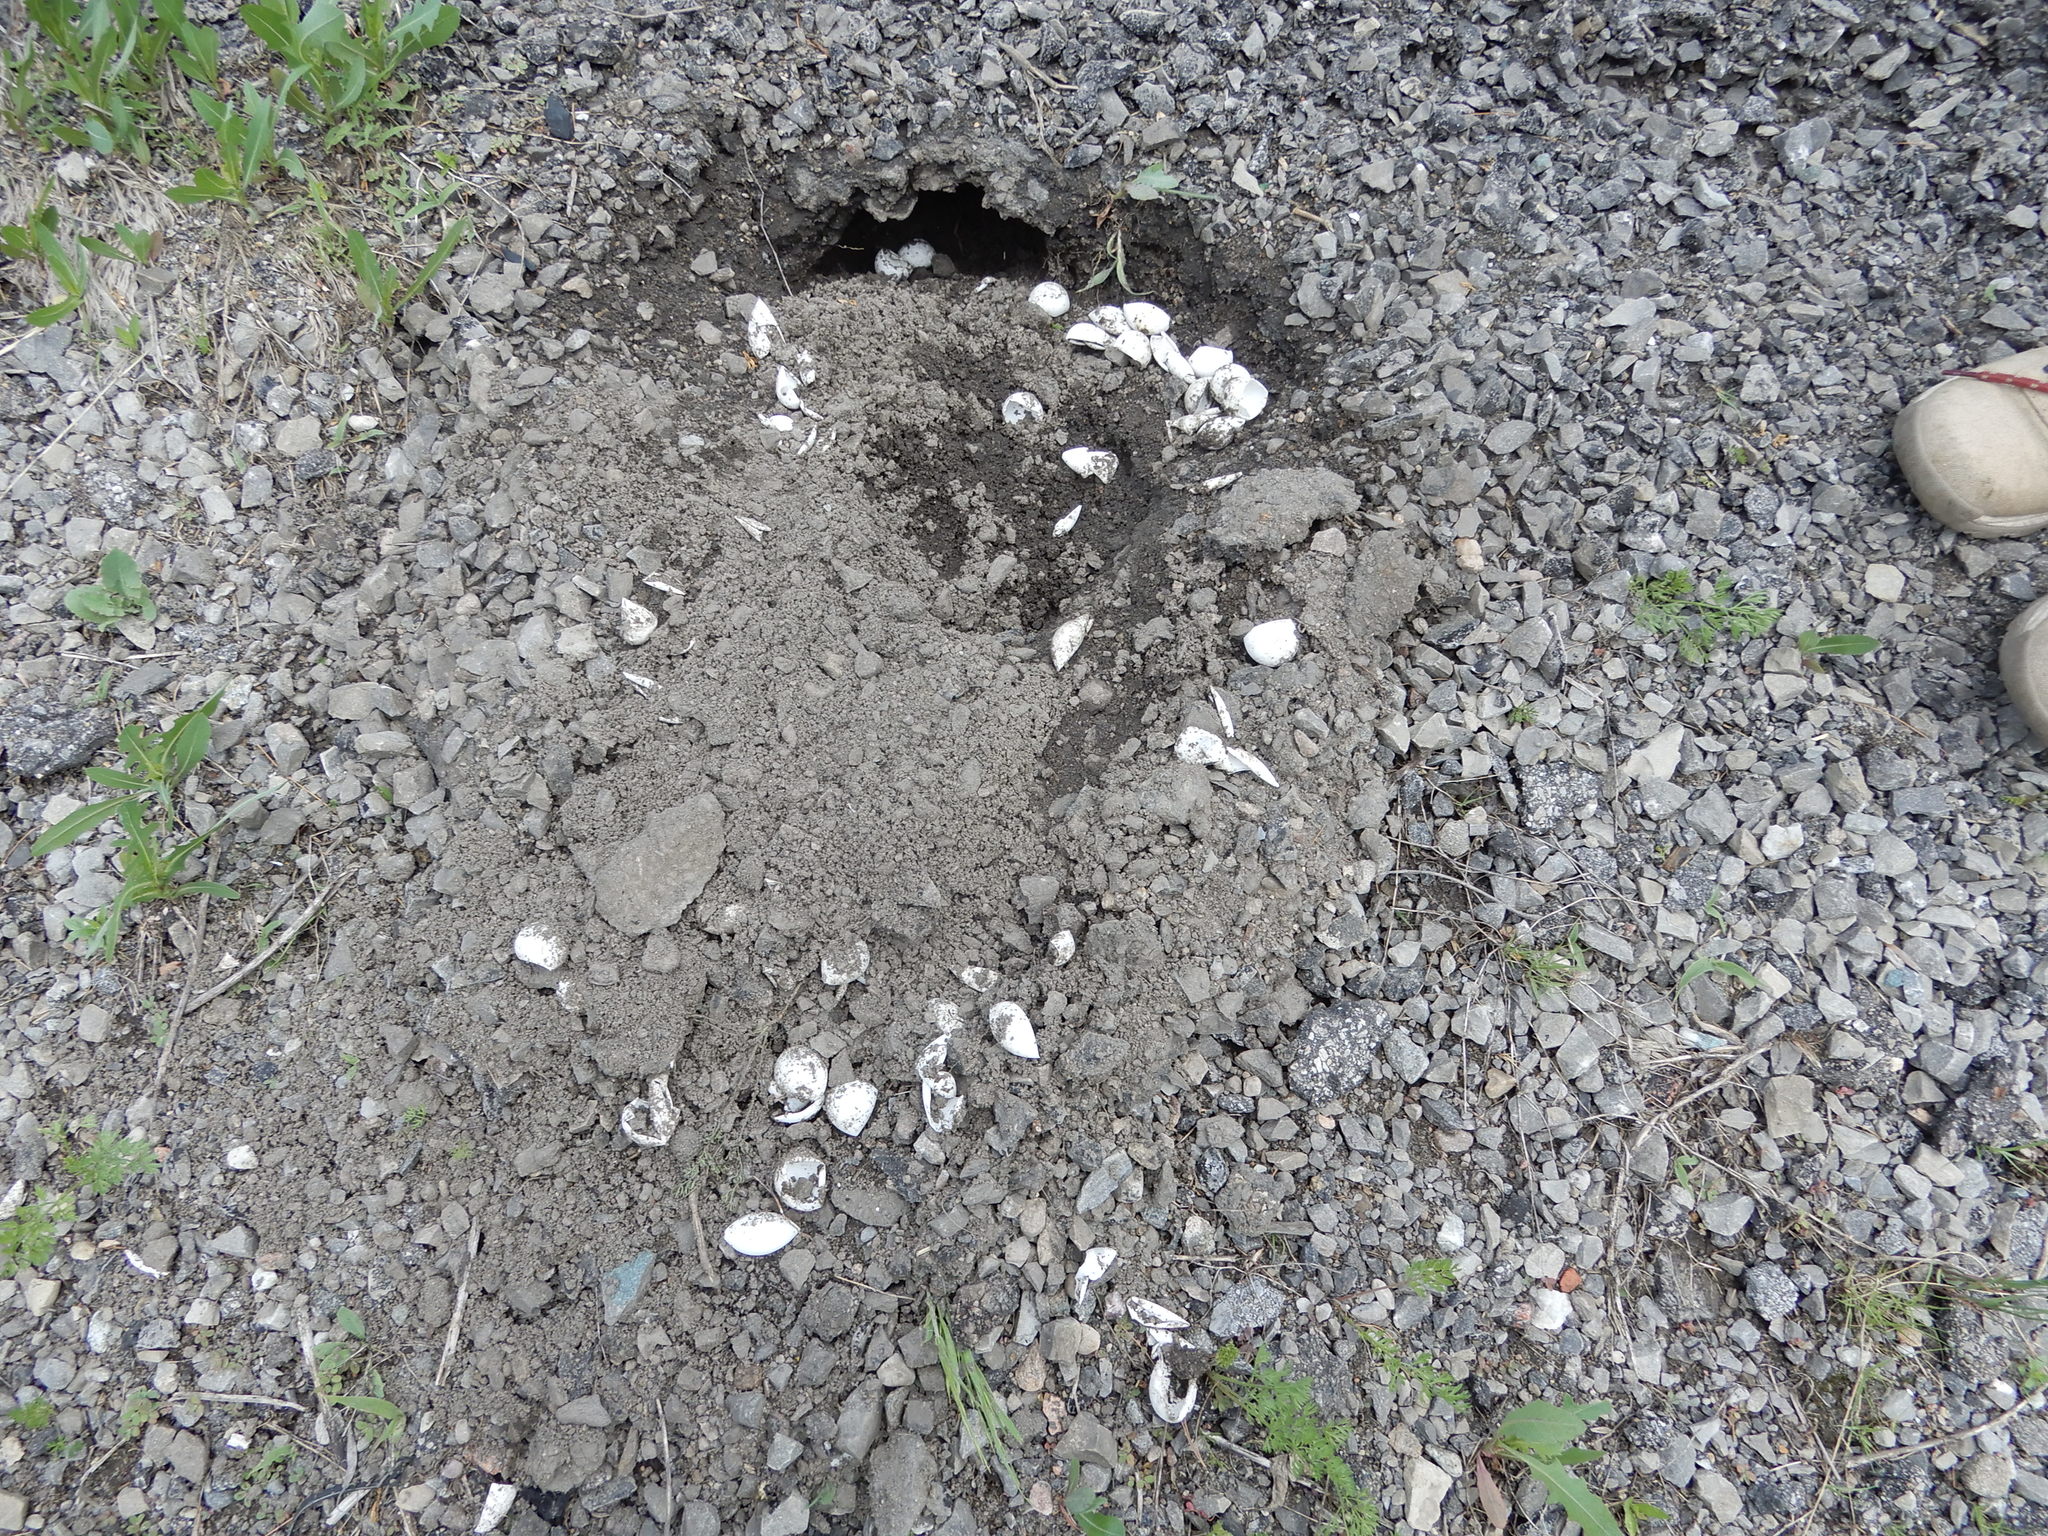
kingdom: Animalia
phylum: Chordata
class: Testudines
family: Chelydridae
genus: Chelydra
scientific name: Chelydra serpentina
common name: Common snapping turtle
